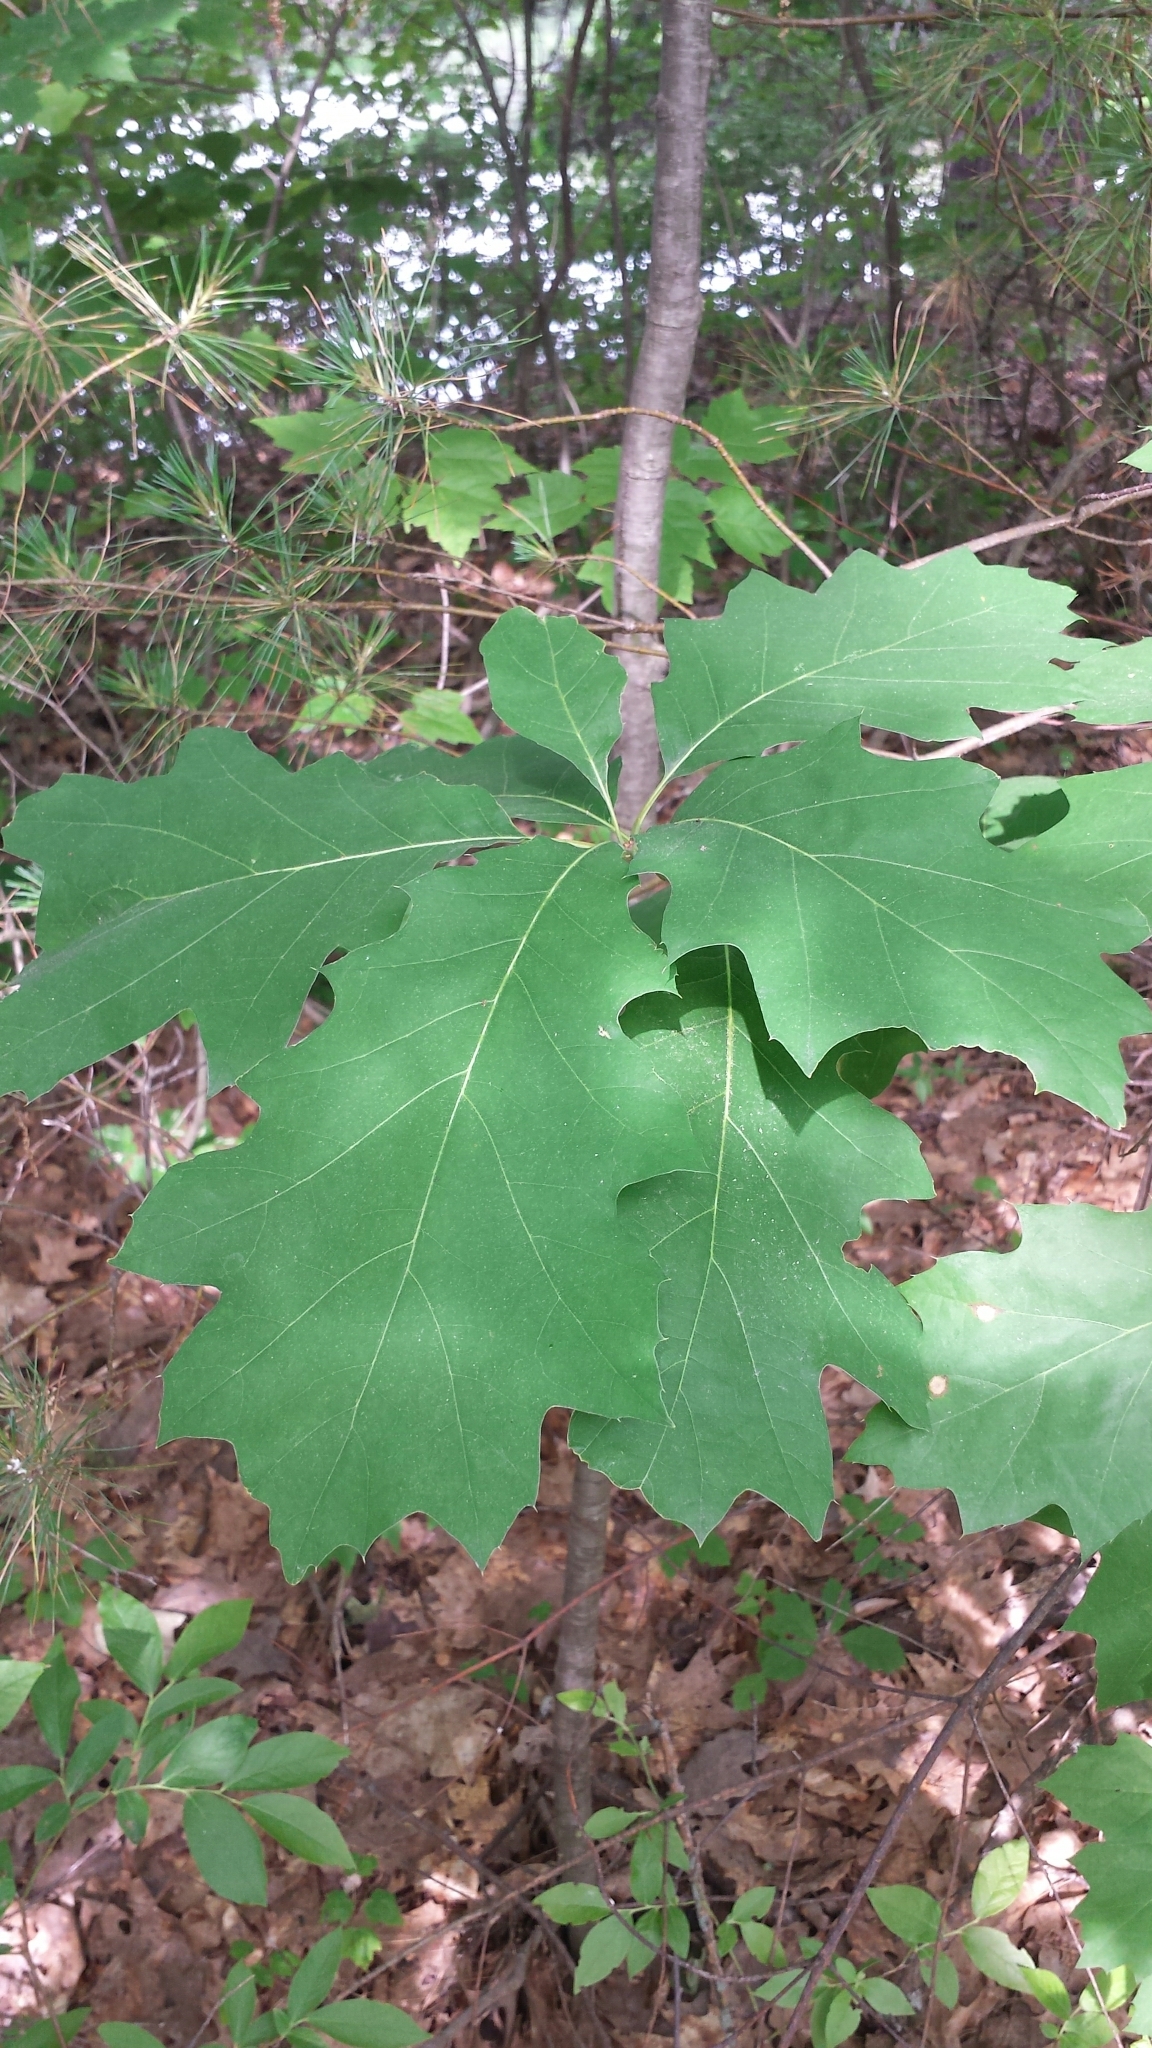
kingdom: Plantae
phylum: Tracheophyta
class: Magnoliopsida
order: Fagales
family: Fagaceae
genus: Quercus
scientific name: Quercus rubra
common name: Red oak
